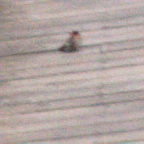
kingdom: Animalia
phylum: Chordata
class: Aves
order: Passeriformes
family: Hirundinidae
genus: Hirundo
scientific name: Hirundo neoxena
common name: Welcome swallow
